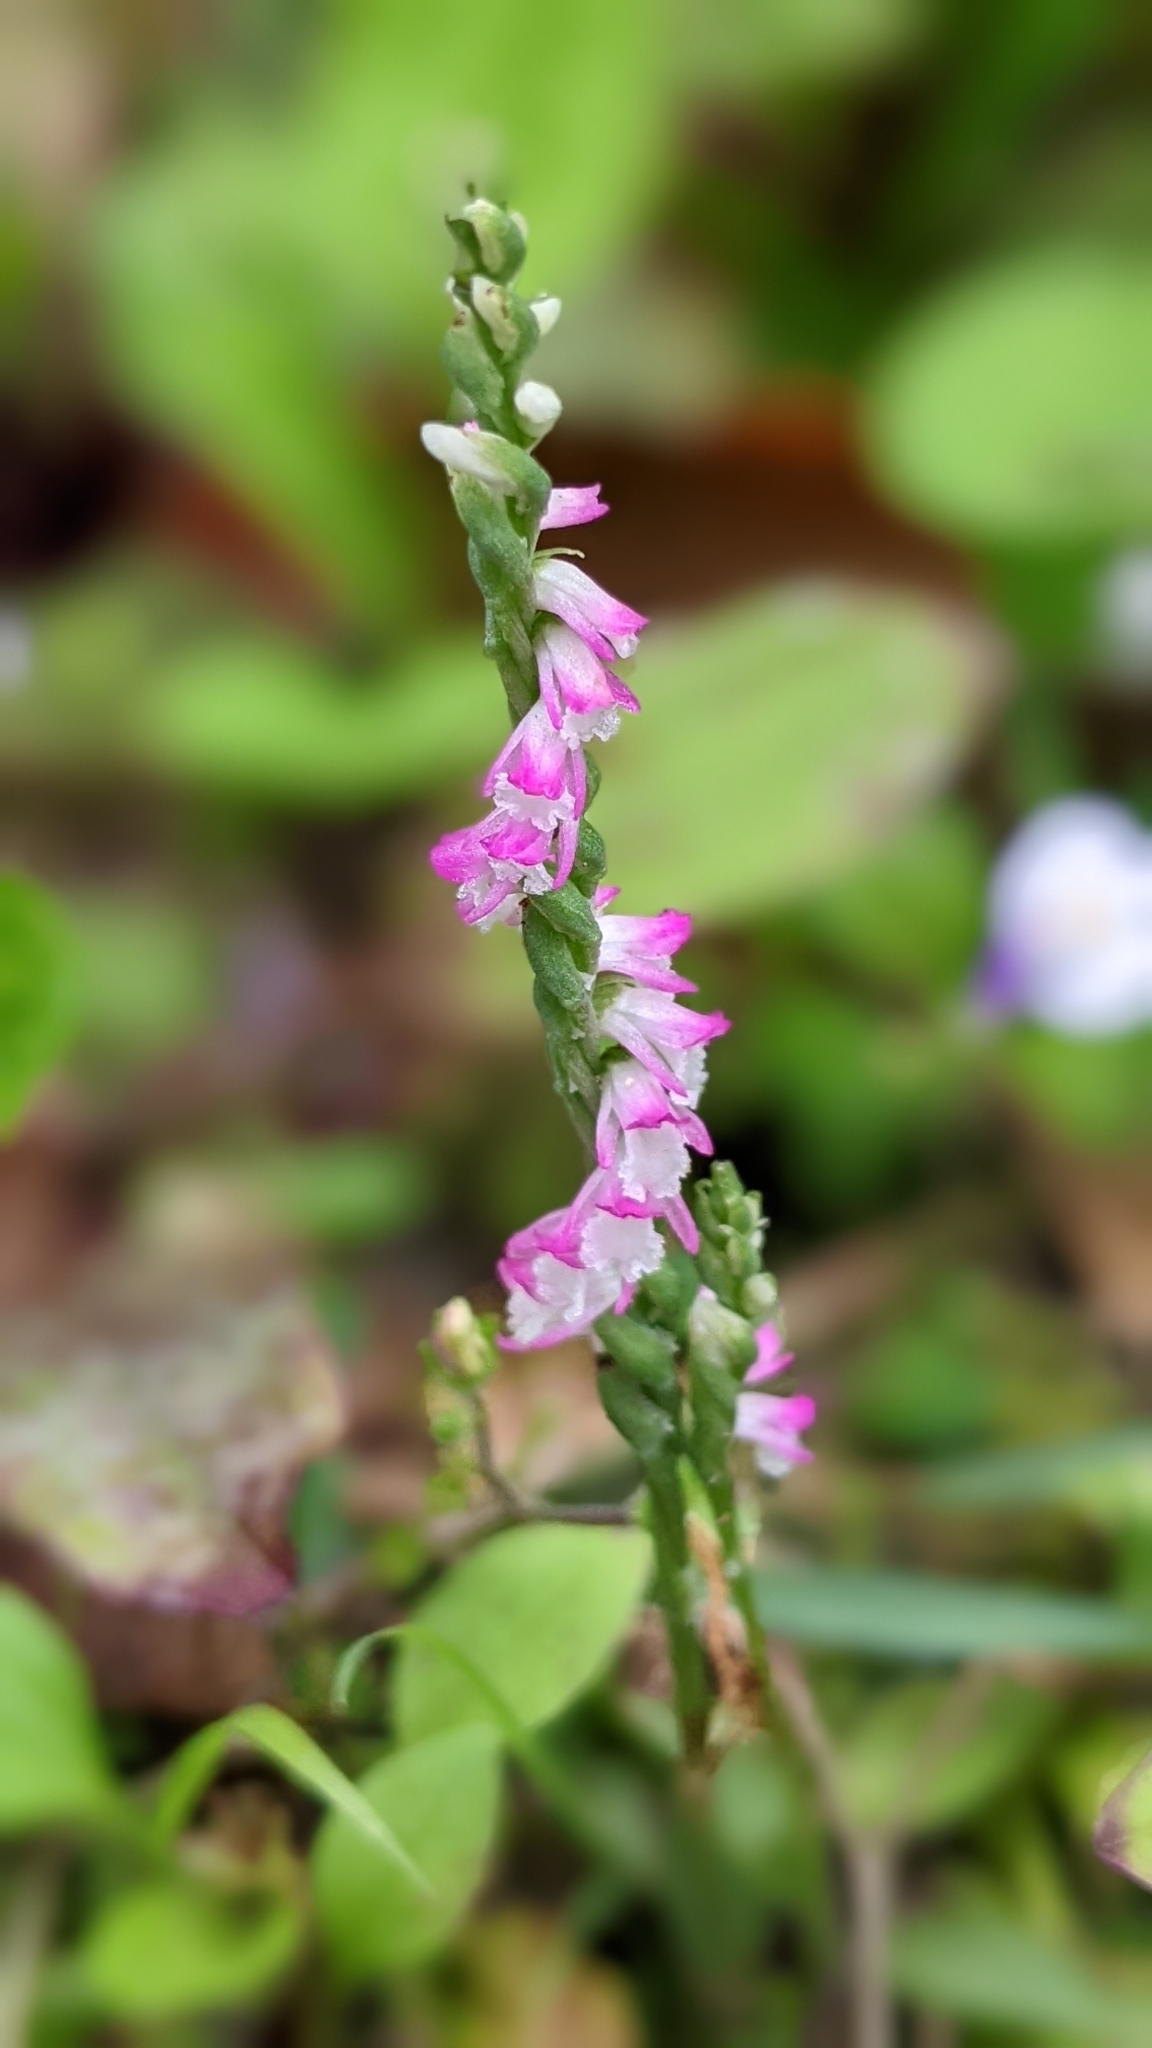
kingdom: Plantae
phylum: Tracheophyta
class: Liliopsida
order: Asparagales
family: Orchidaceae
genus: Spiranthes
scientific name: Spiranthes sinensis
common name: Chinese spiranthes
